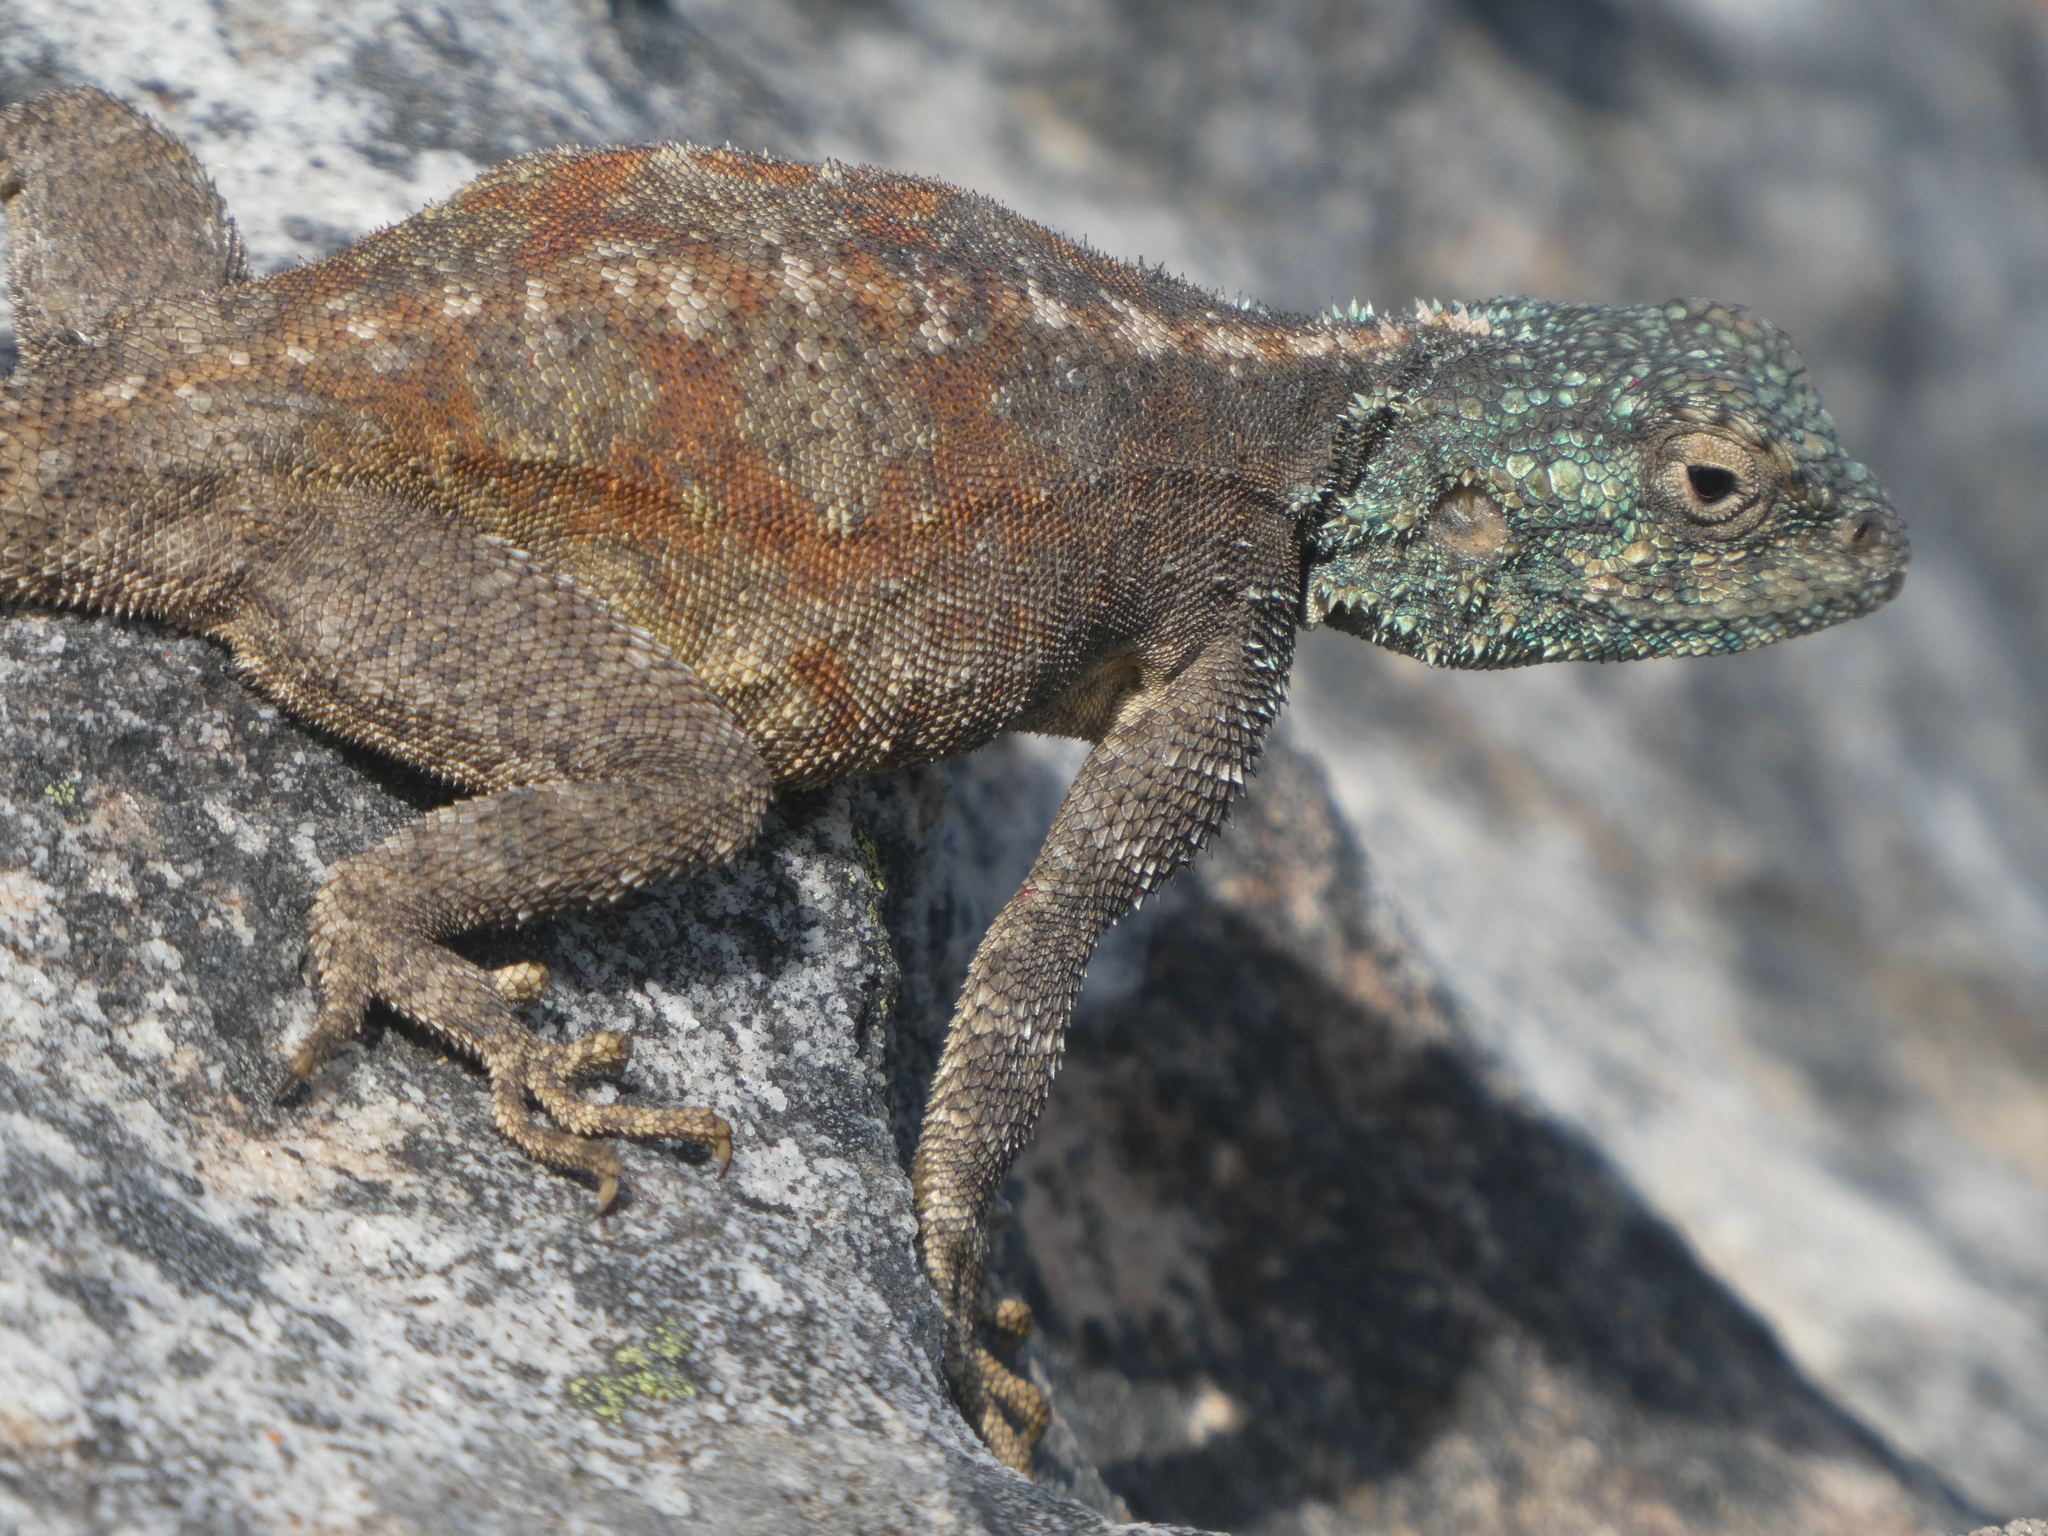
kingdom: Animalia
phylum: Chordata
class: Squamata
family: Agamidae
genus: Agama
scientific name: Agama atra
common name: Southern african rock agama
